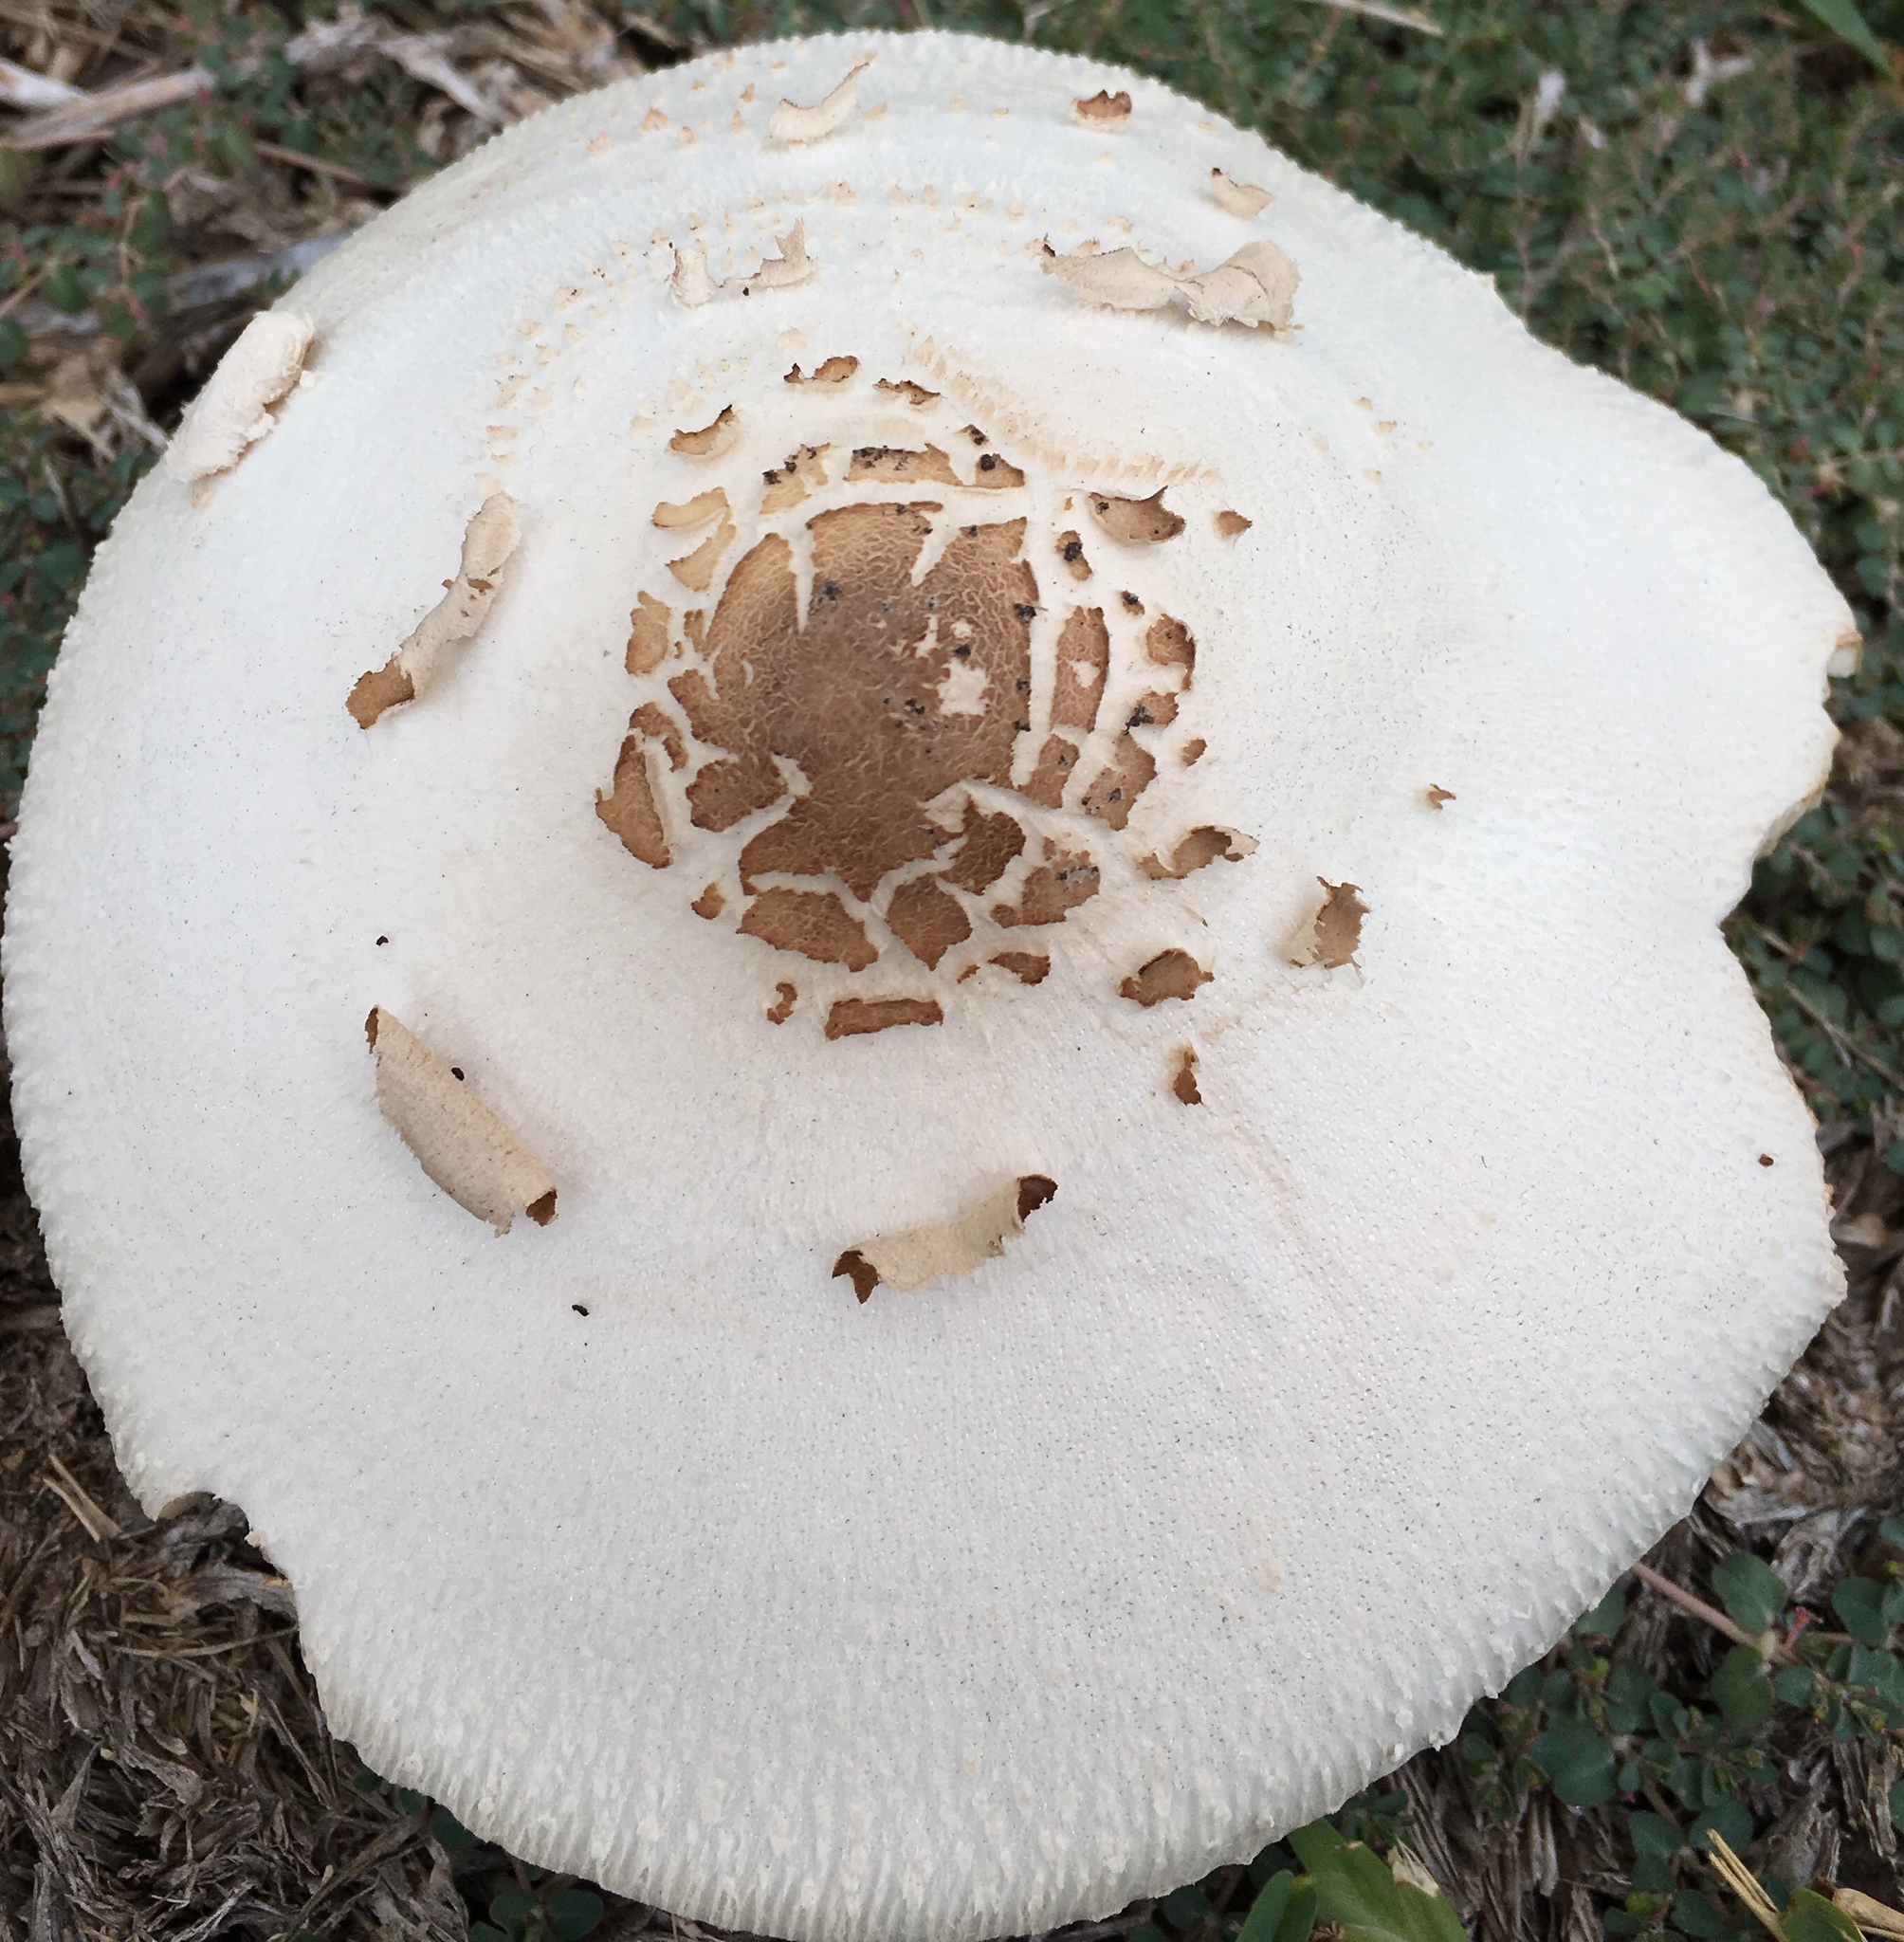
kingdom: Fungi
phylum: Basidiomycota
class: Agaricomycetes
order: Agaricales
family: Agaricaceae
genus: Chlorophyllum
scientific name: Chlorophyllum molybdites
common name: False parasol
